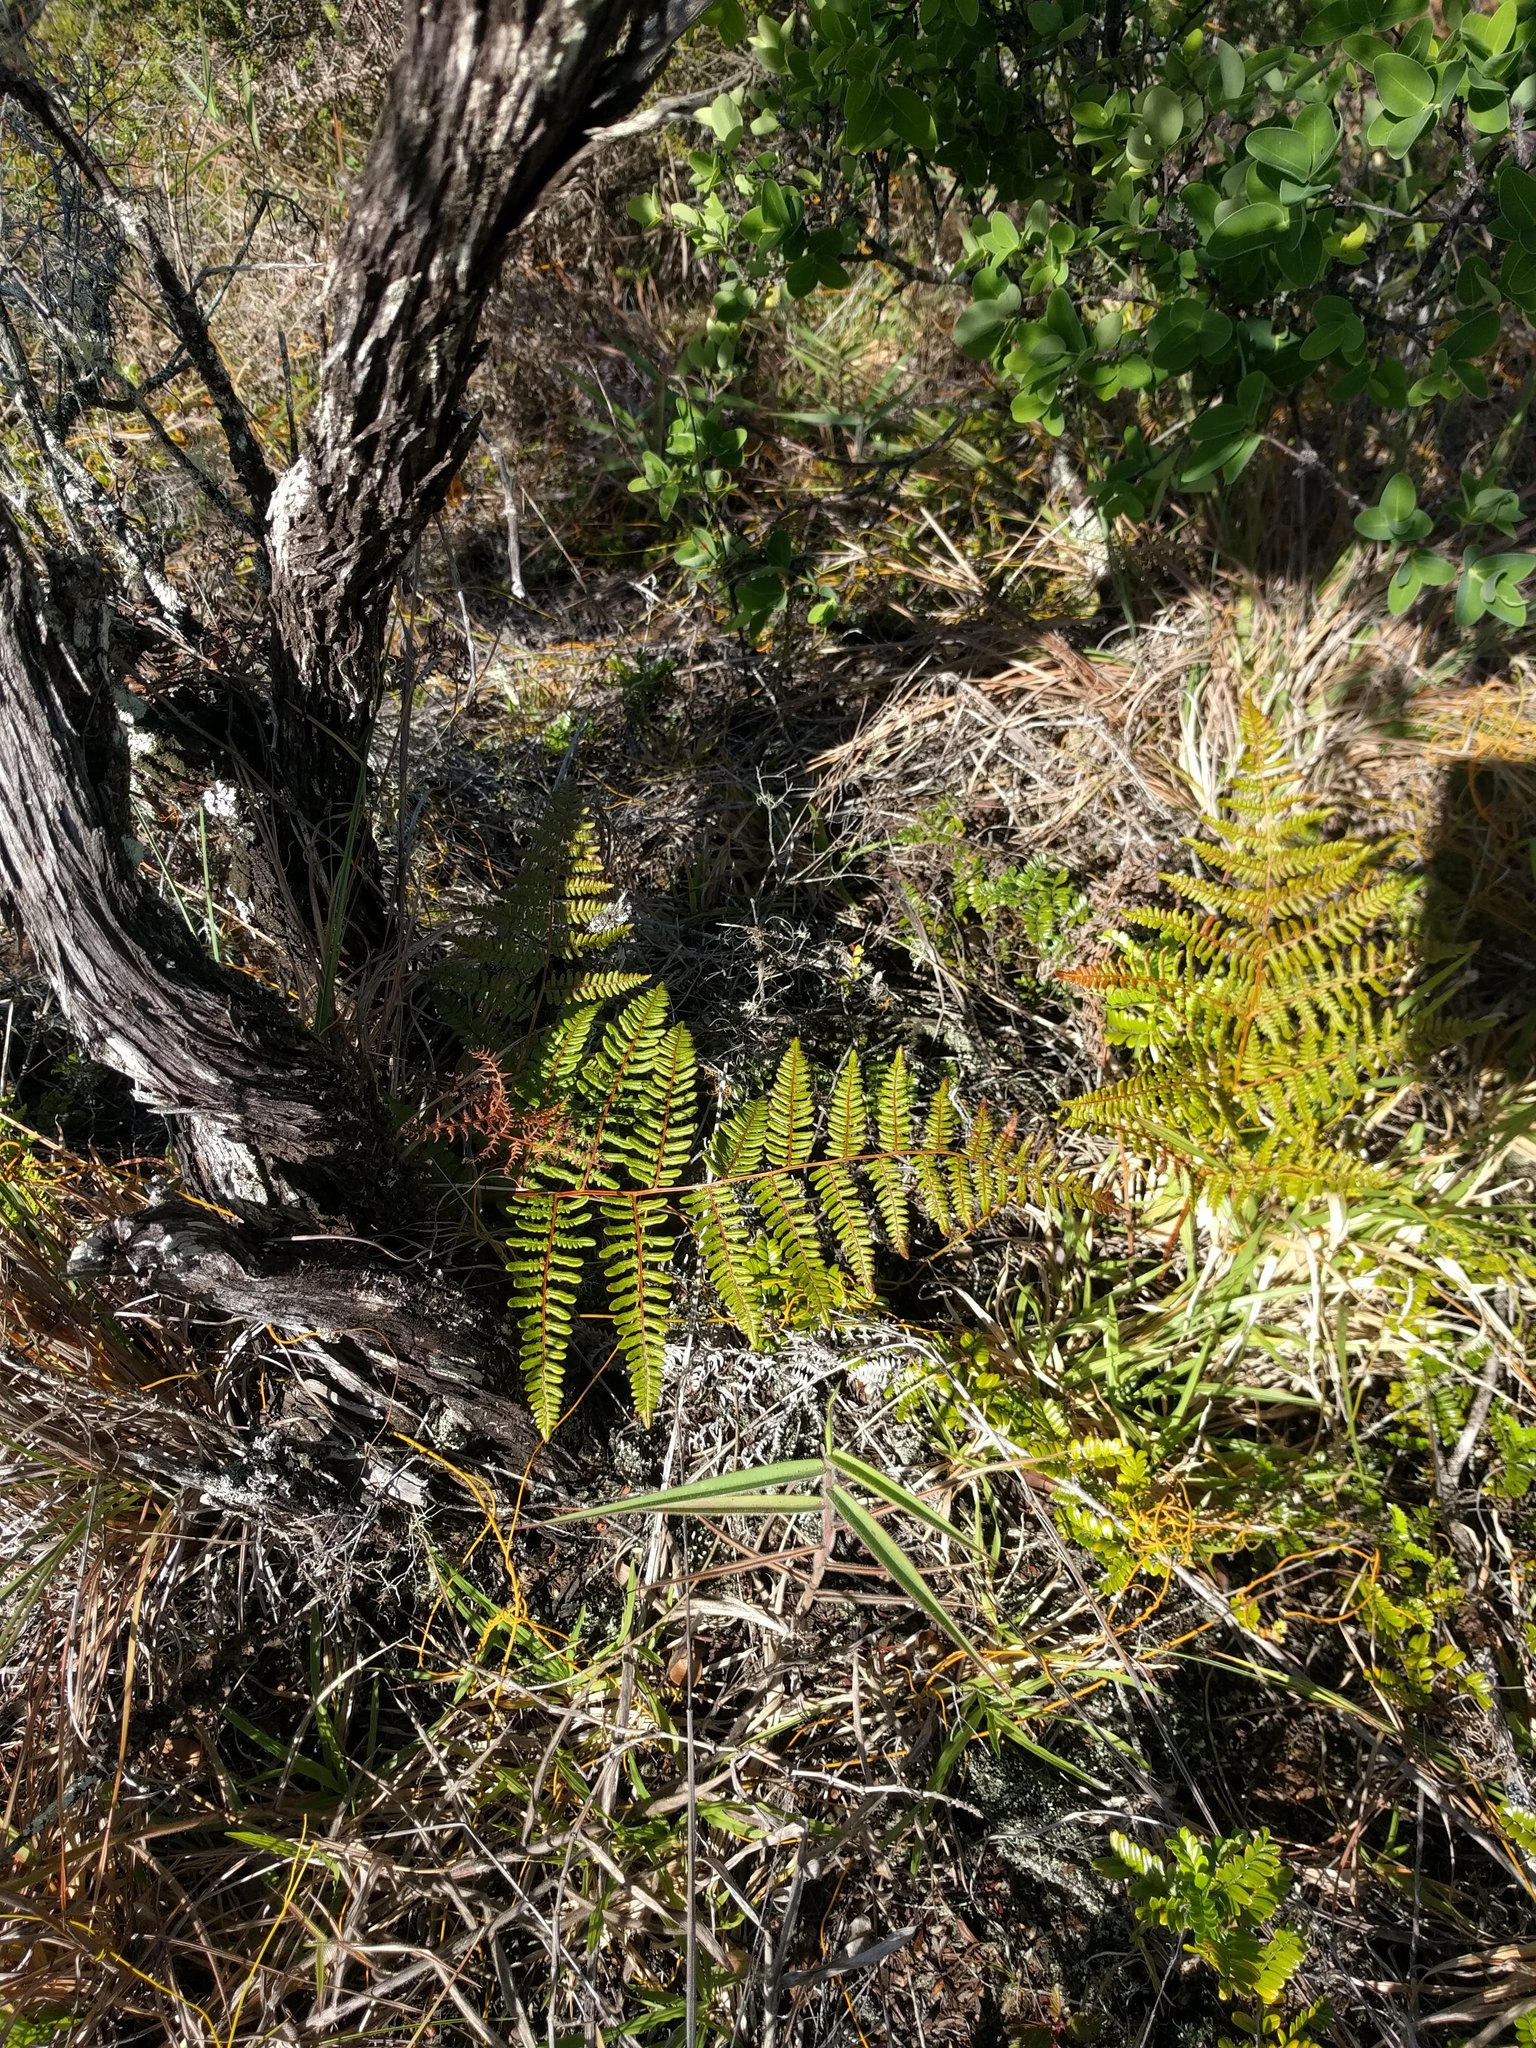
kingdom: Plantae
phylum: Tracheophyta
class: Polypodiopsida
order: Polypodiales
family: Dennstaedtiaceae
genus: Pteridium
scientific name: Pteridium aquilinum
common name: Bracken
